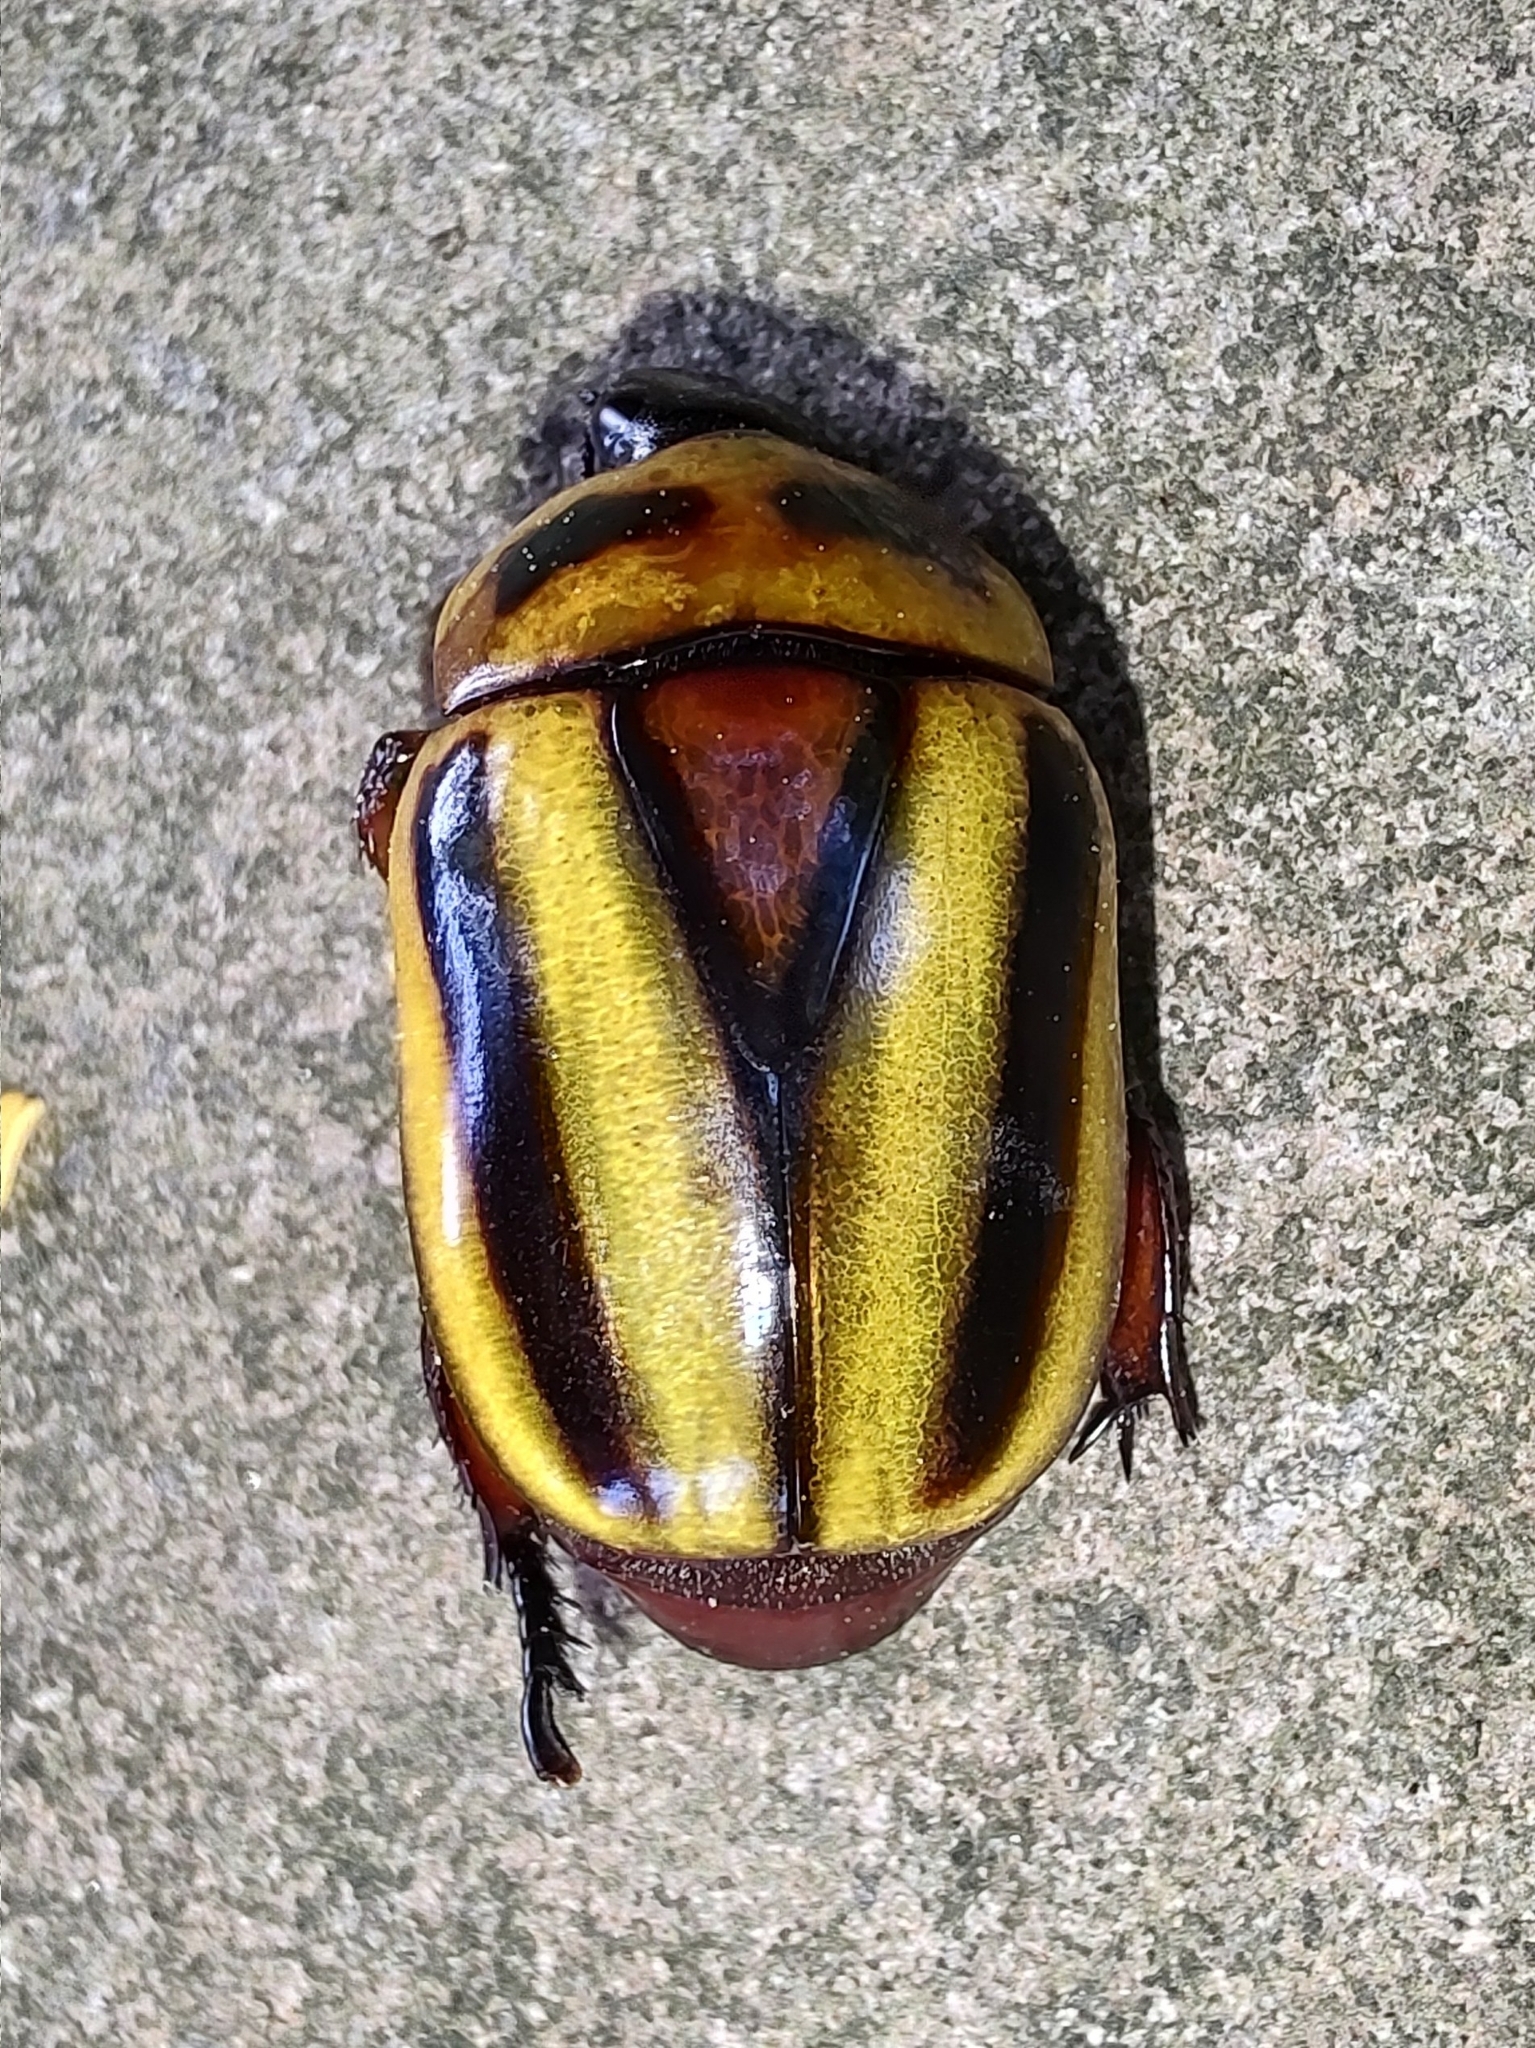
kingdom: Animalia
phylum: Arthropoda
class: Insecta
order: Coleoptera
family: Scarabaeidae
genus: Macraspis
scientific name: Macraspis cincta
